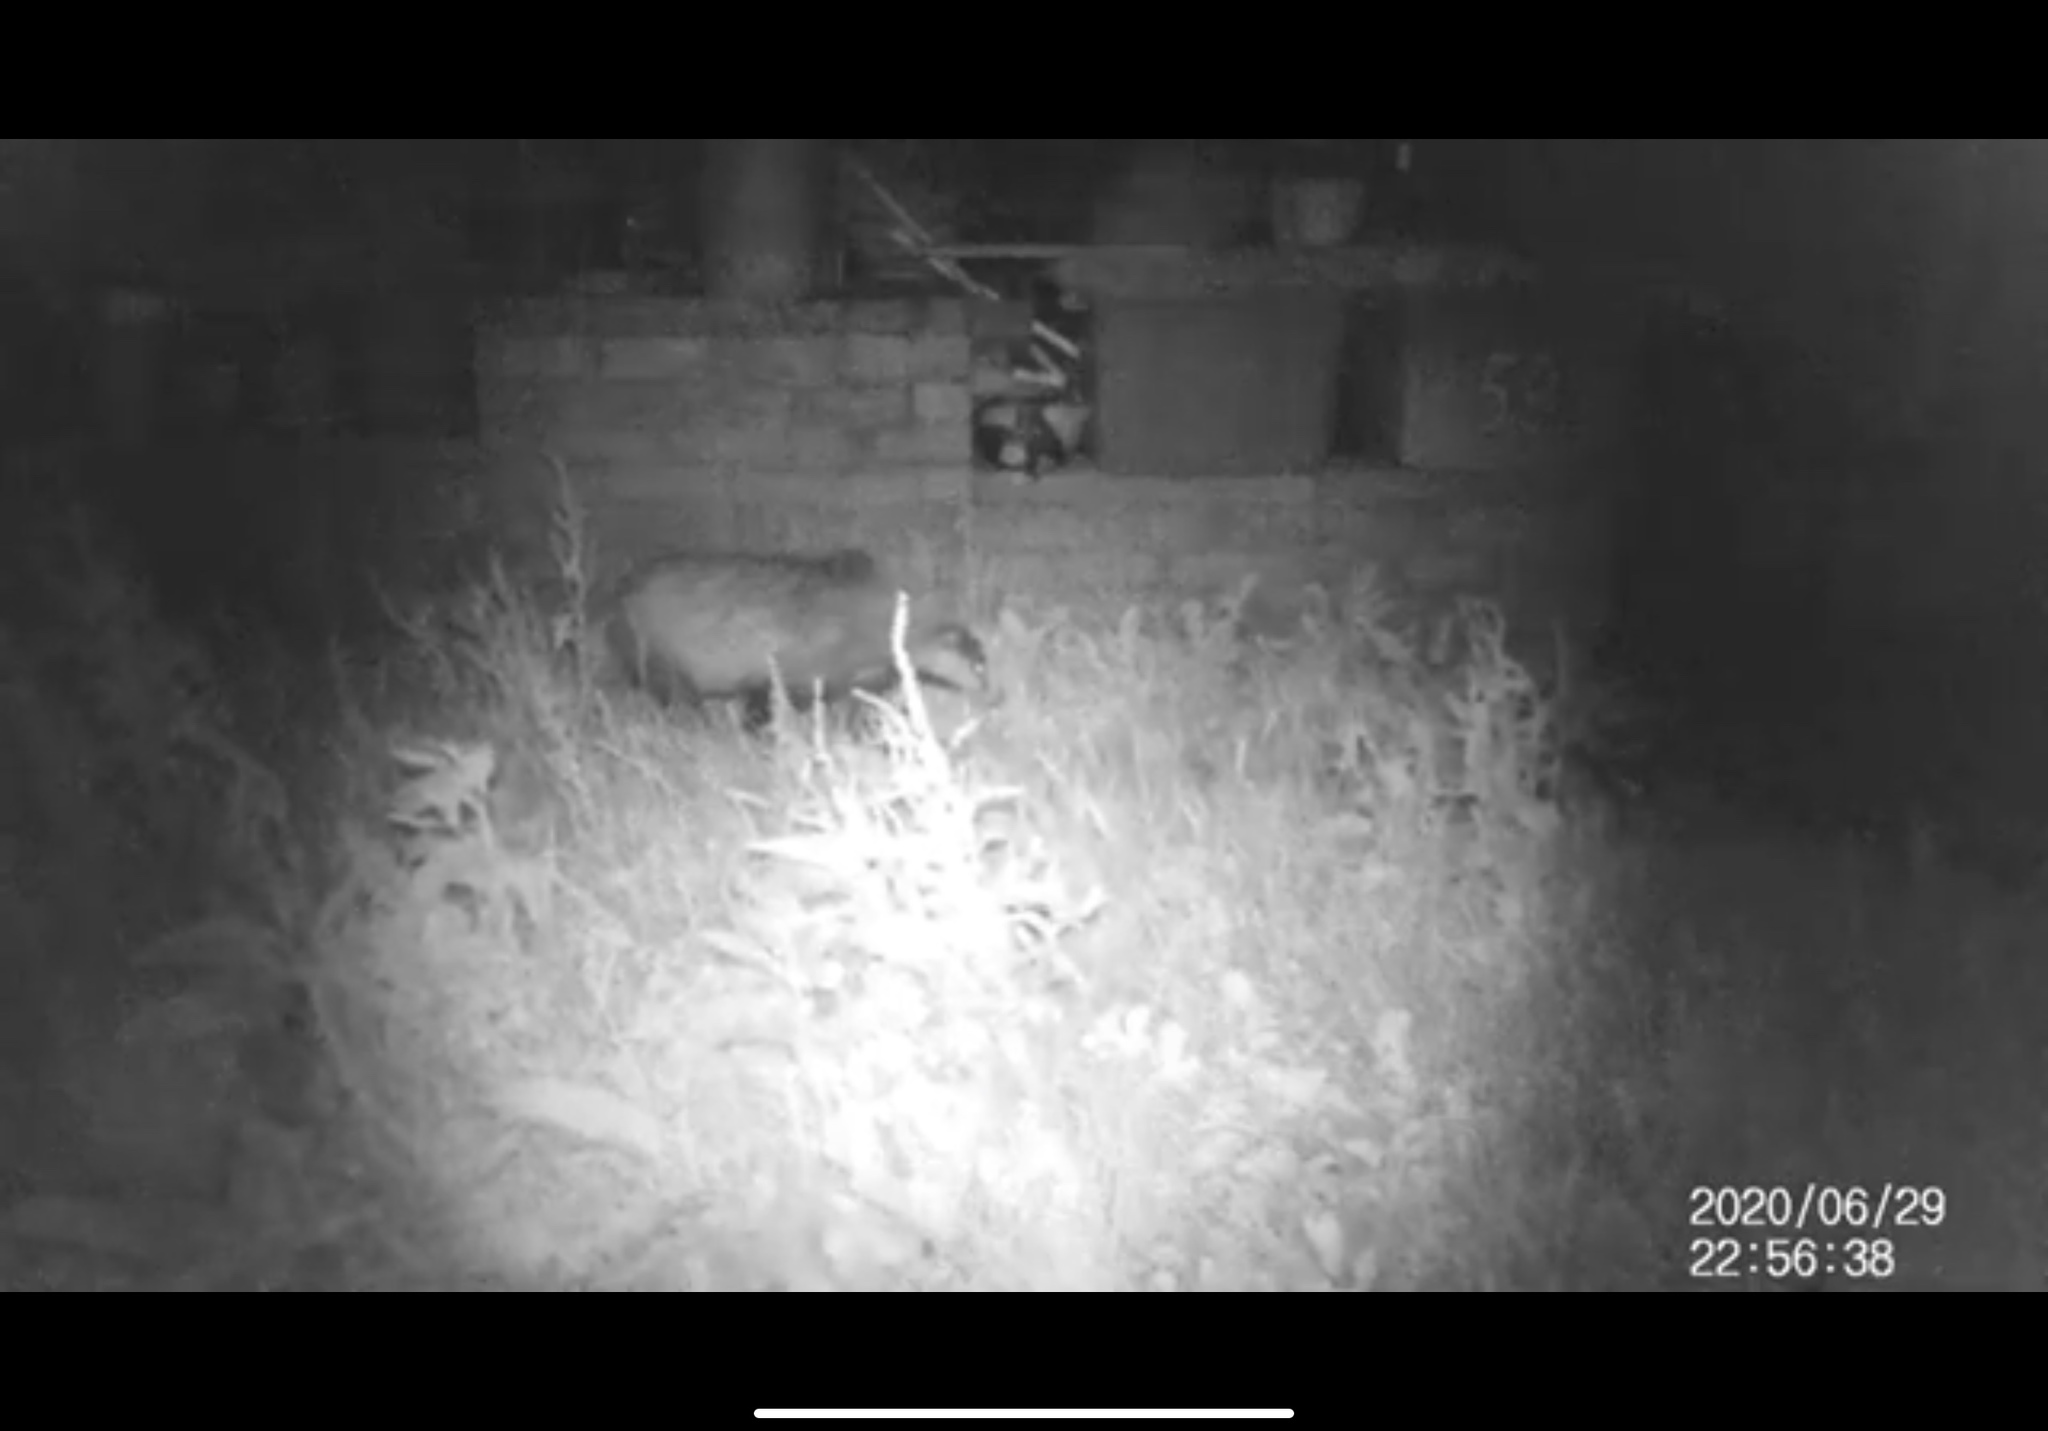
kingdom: Animalia
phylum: Chordata
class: Mammalia
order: Carnivora
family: Mustelidae
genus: Meles
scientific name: Meles meles
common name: Eurasian badger
